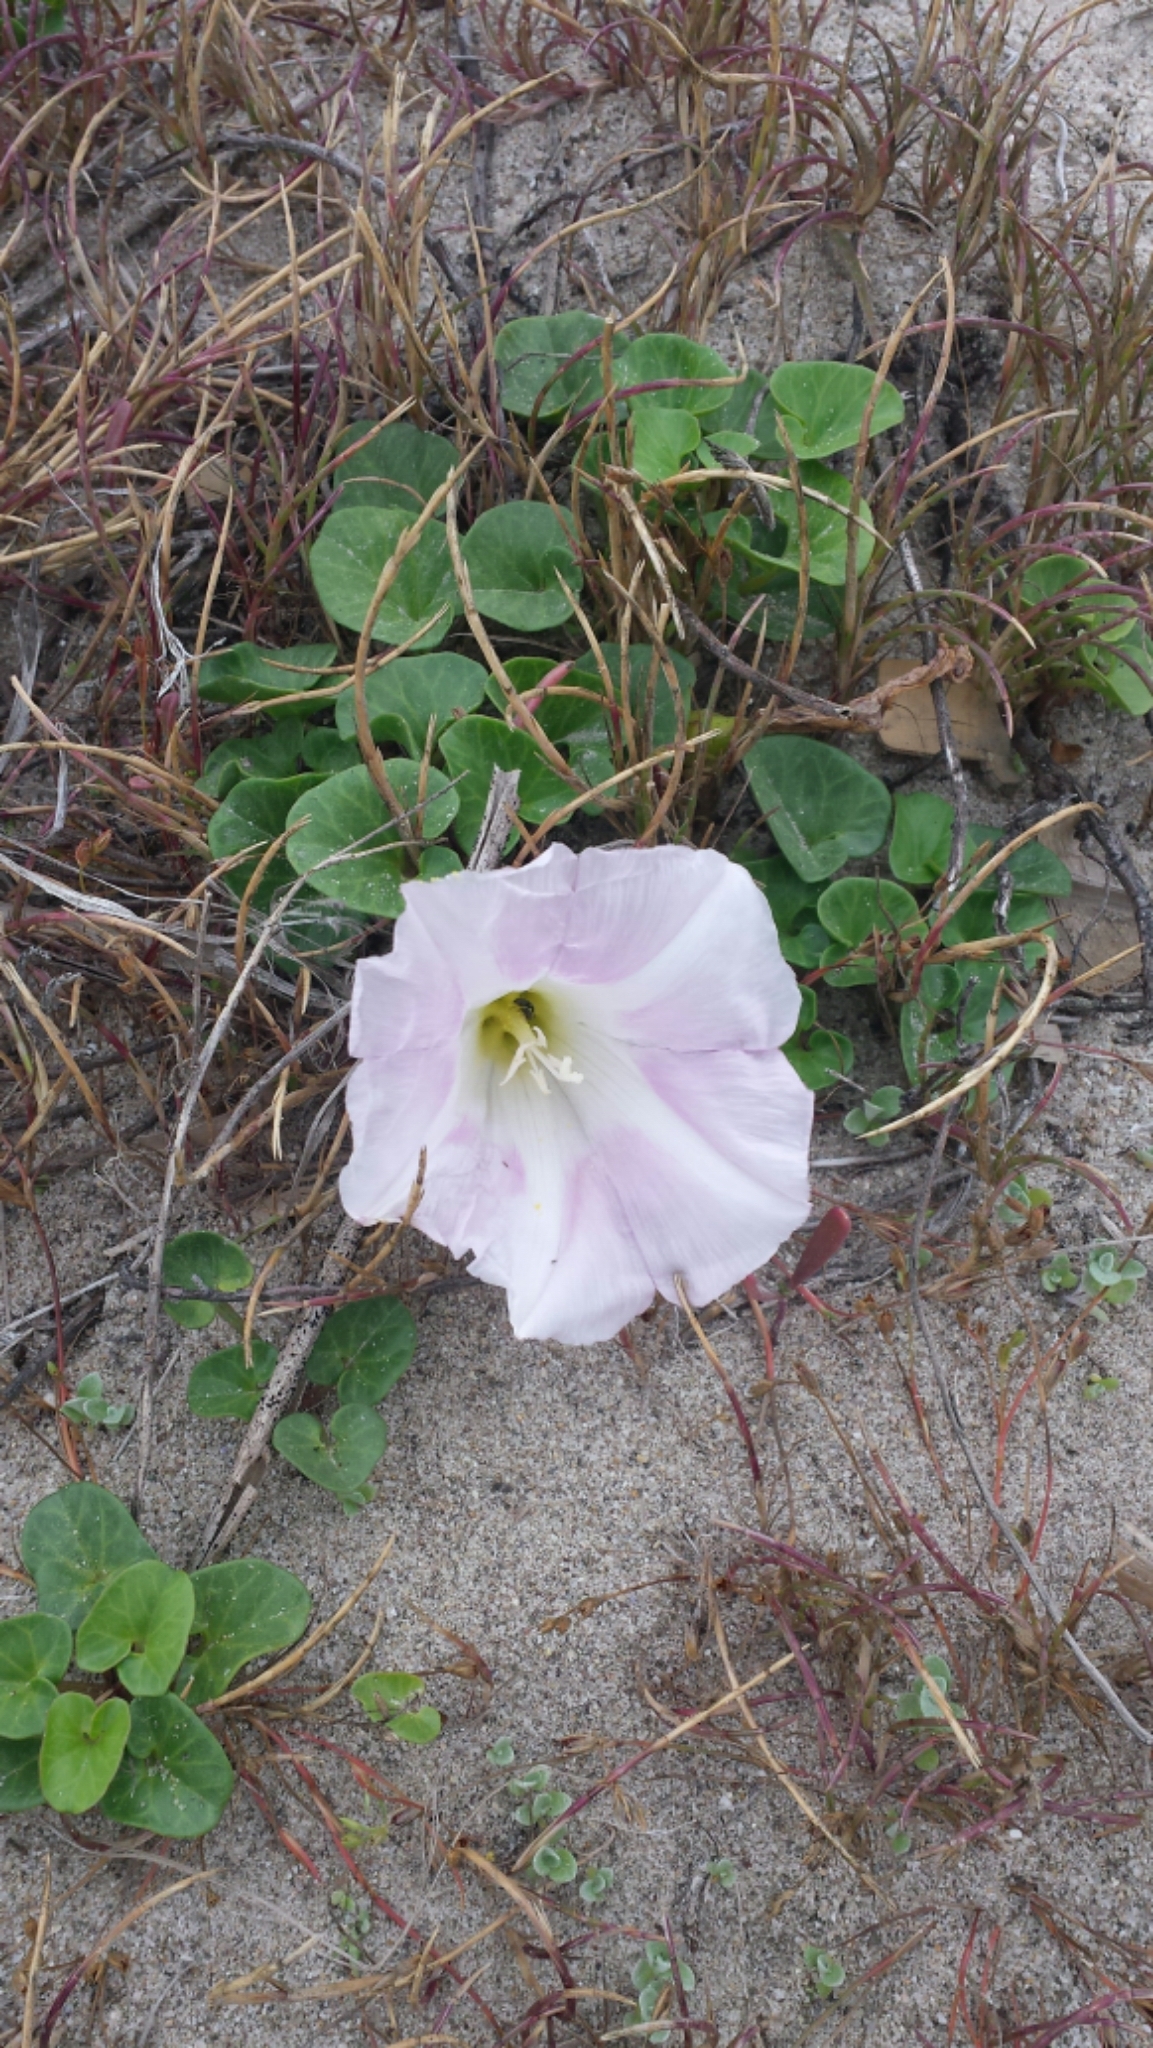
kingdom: Plantae
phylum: Tracheophyta
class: Magnoliopsida
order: Solanales
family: Convolvulaceae
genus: Calystegia
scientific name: Calystegia soldanella
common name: Sea bindweed
